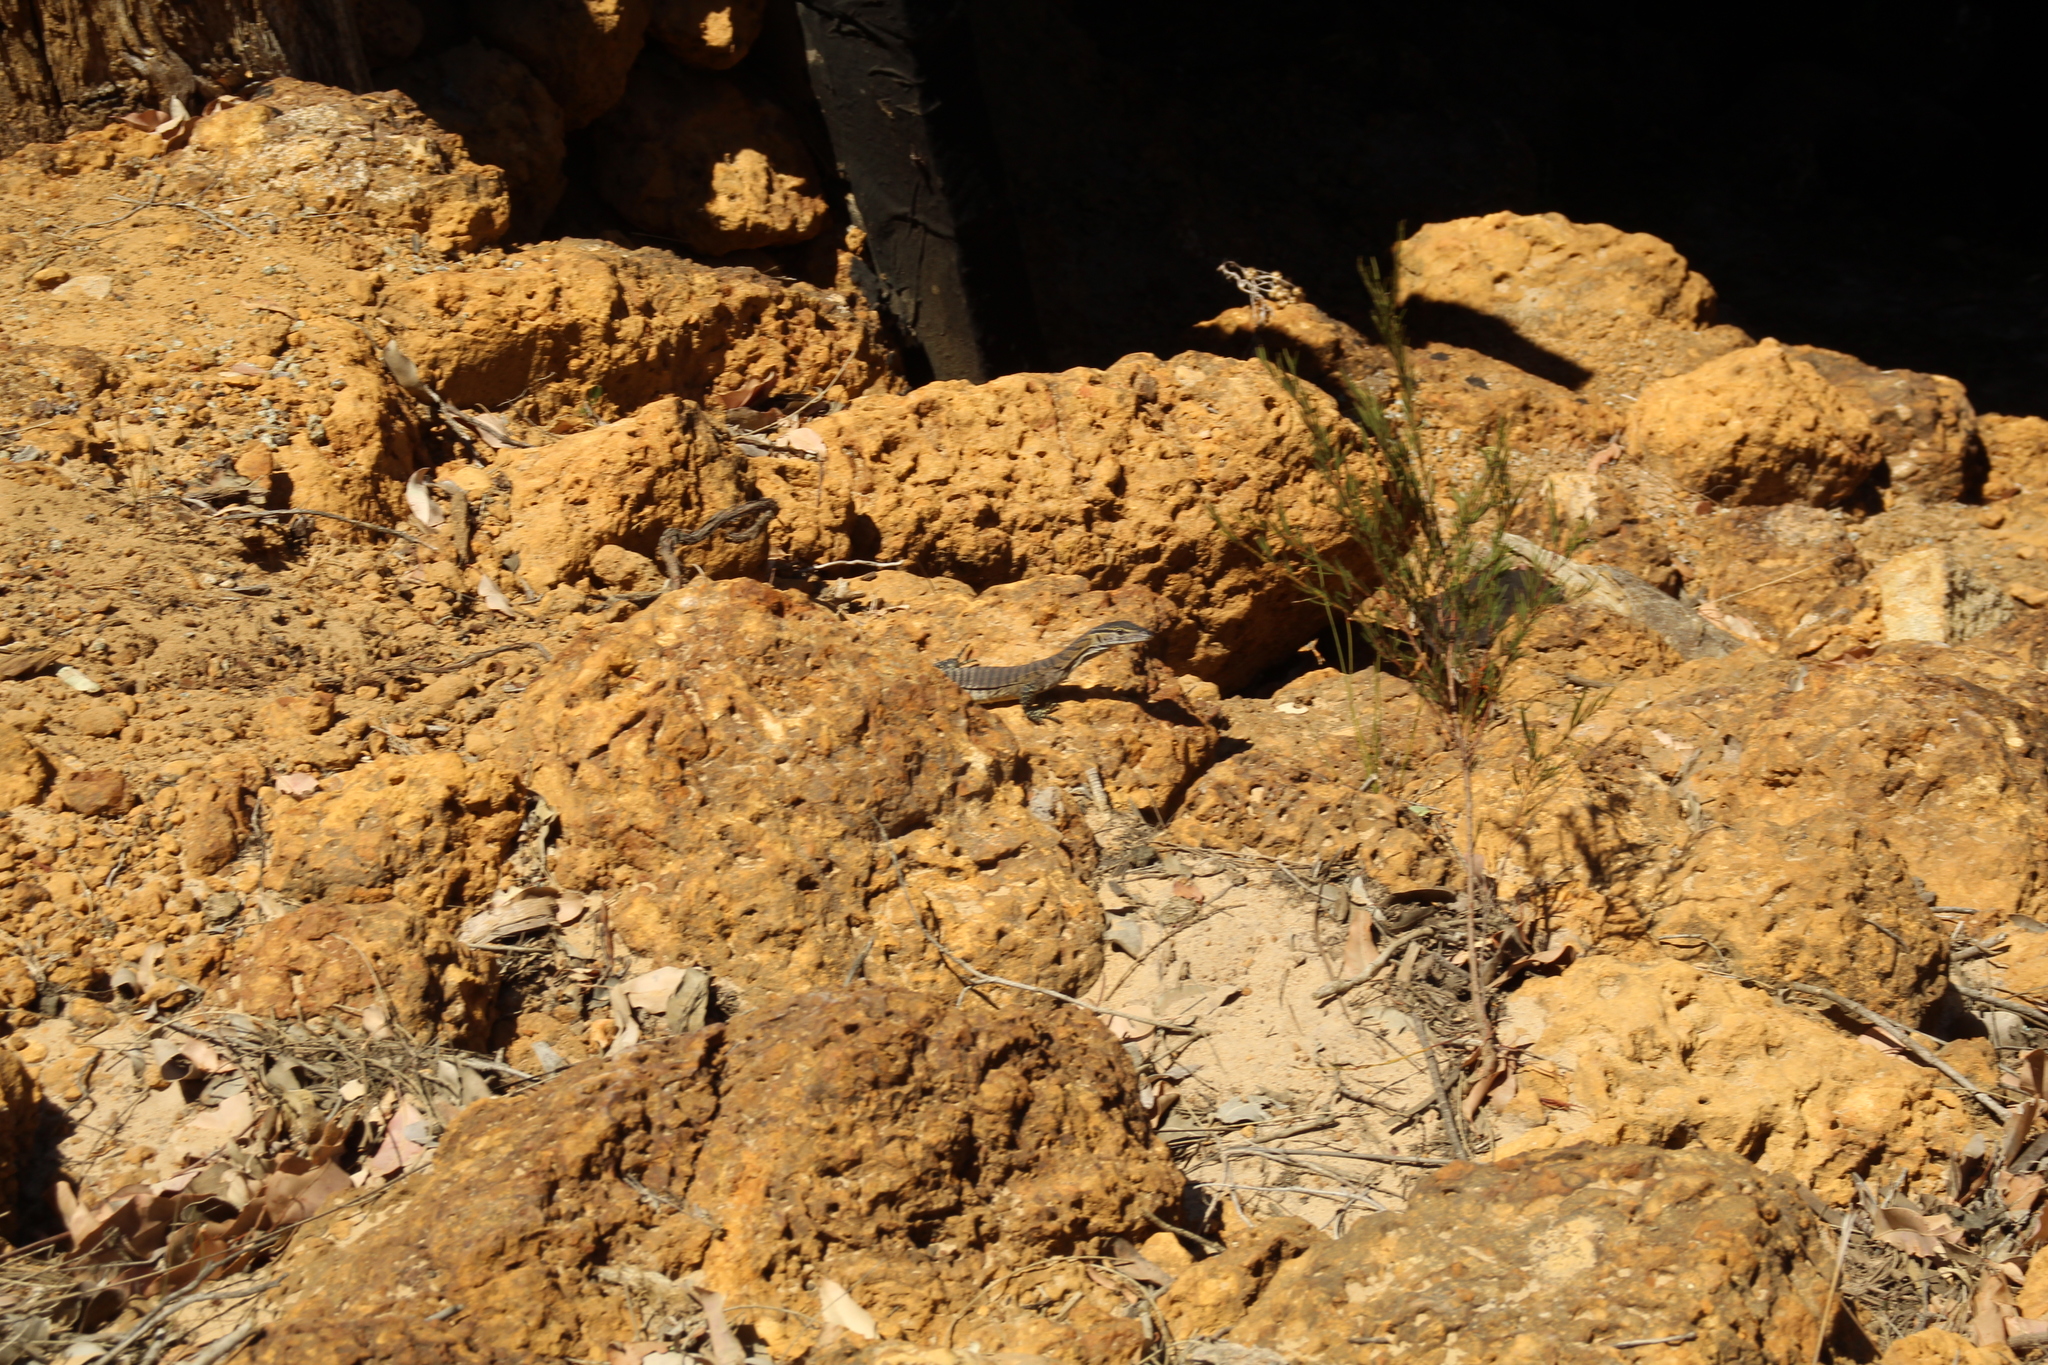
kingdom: Animalia
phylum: Chordata
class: Squamata
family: Varanidae
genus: Varanus
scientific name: Varanus rosenbergi
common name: Heath monitor
